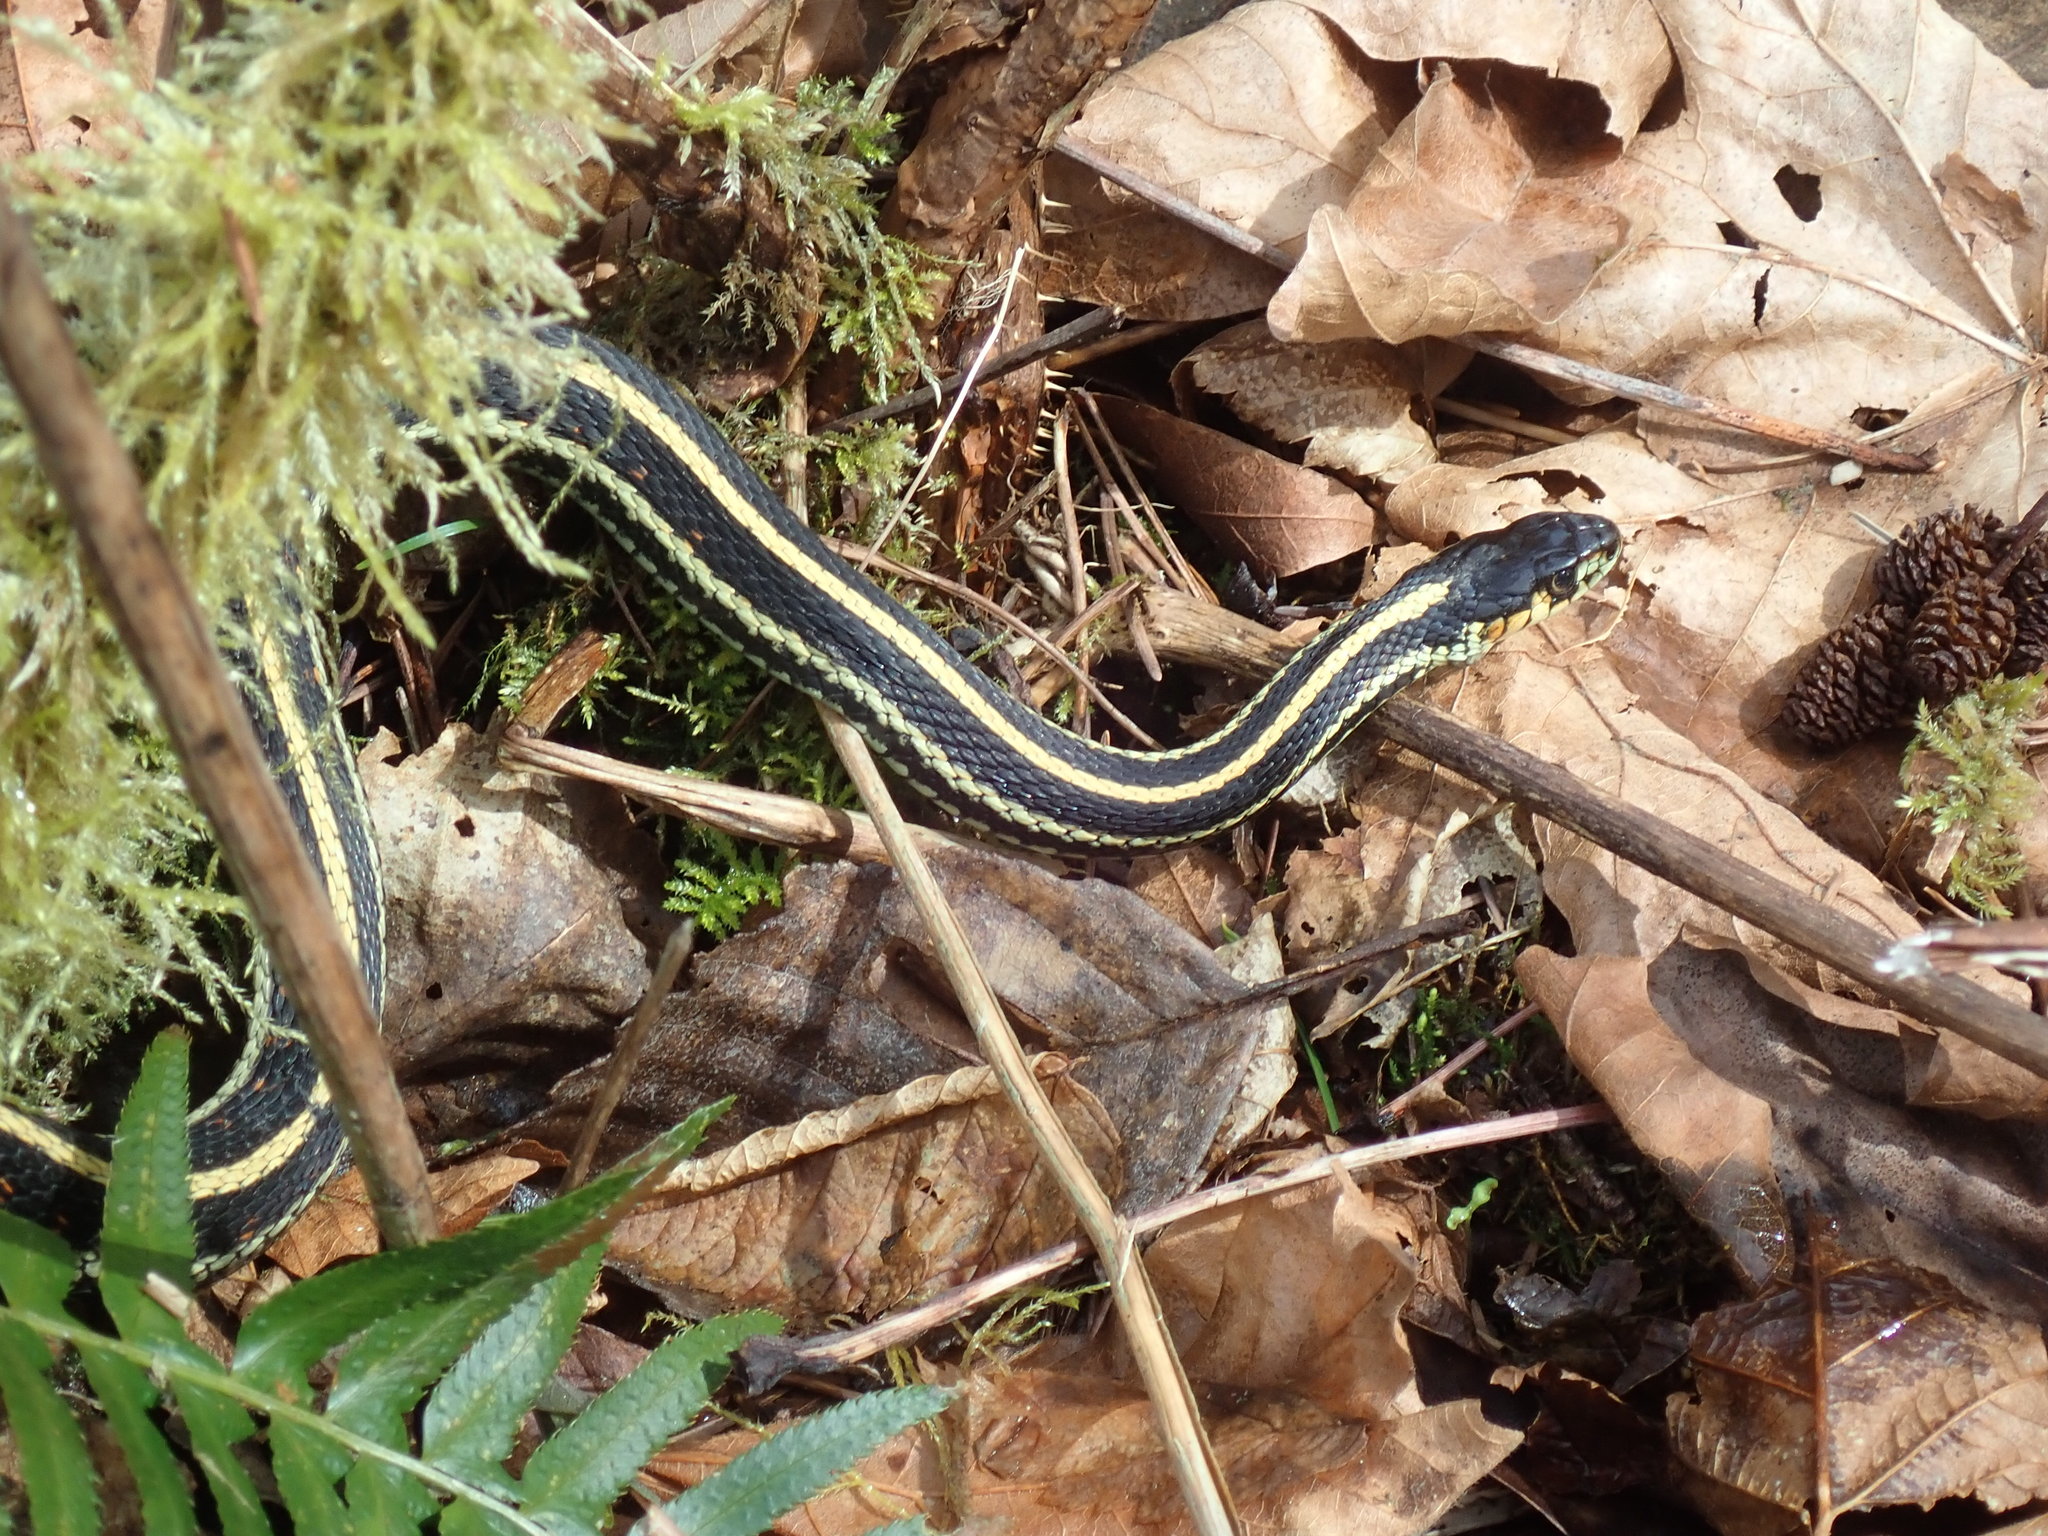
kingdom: Animalia
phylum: Chordata
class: Squamata
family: Colubridae
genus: Thamnophis
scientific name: Thamnophis sirtalis
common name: Common garter snake
